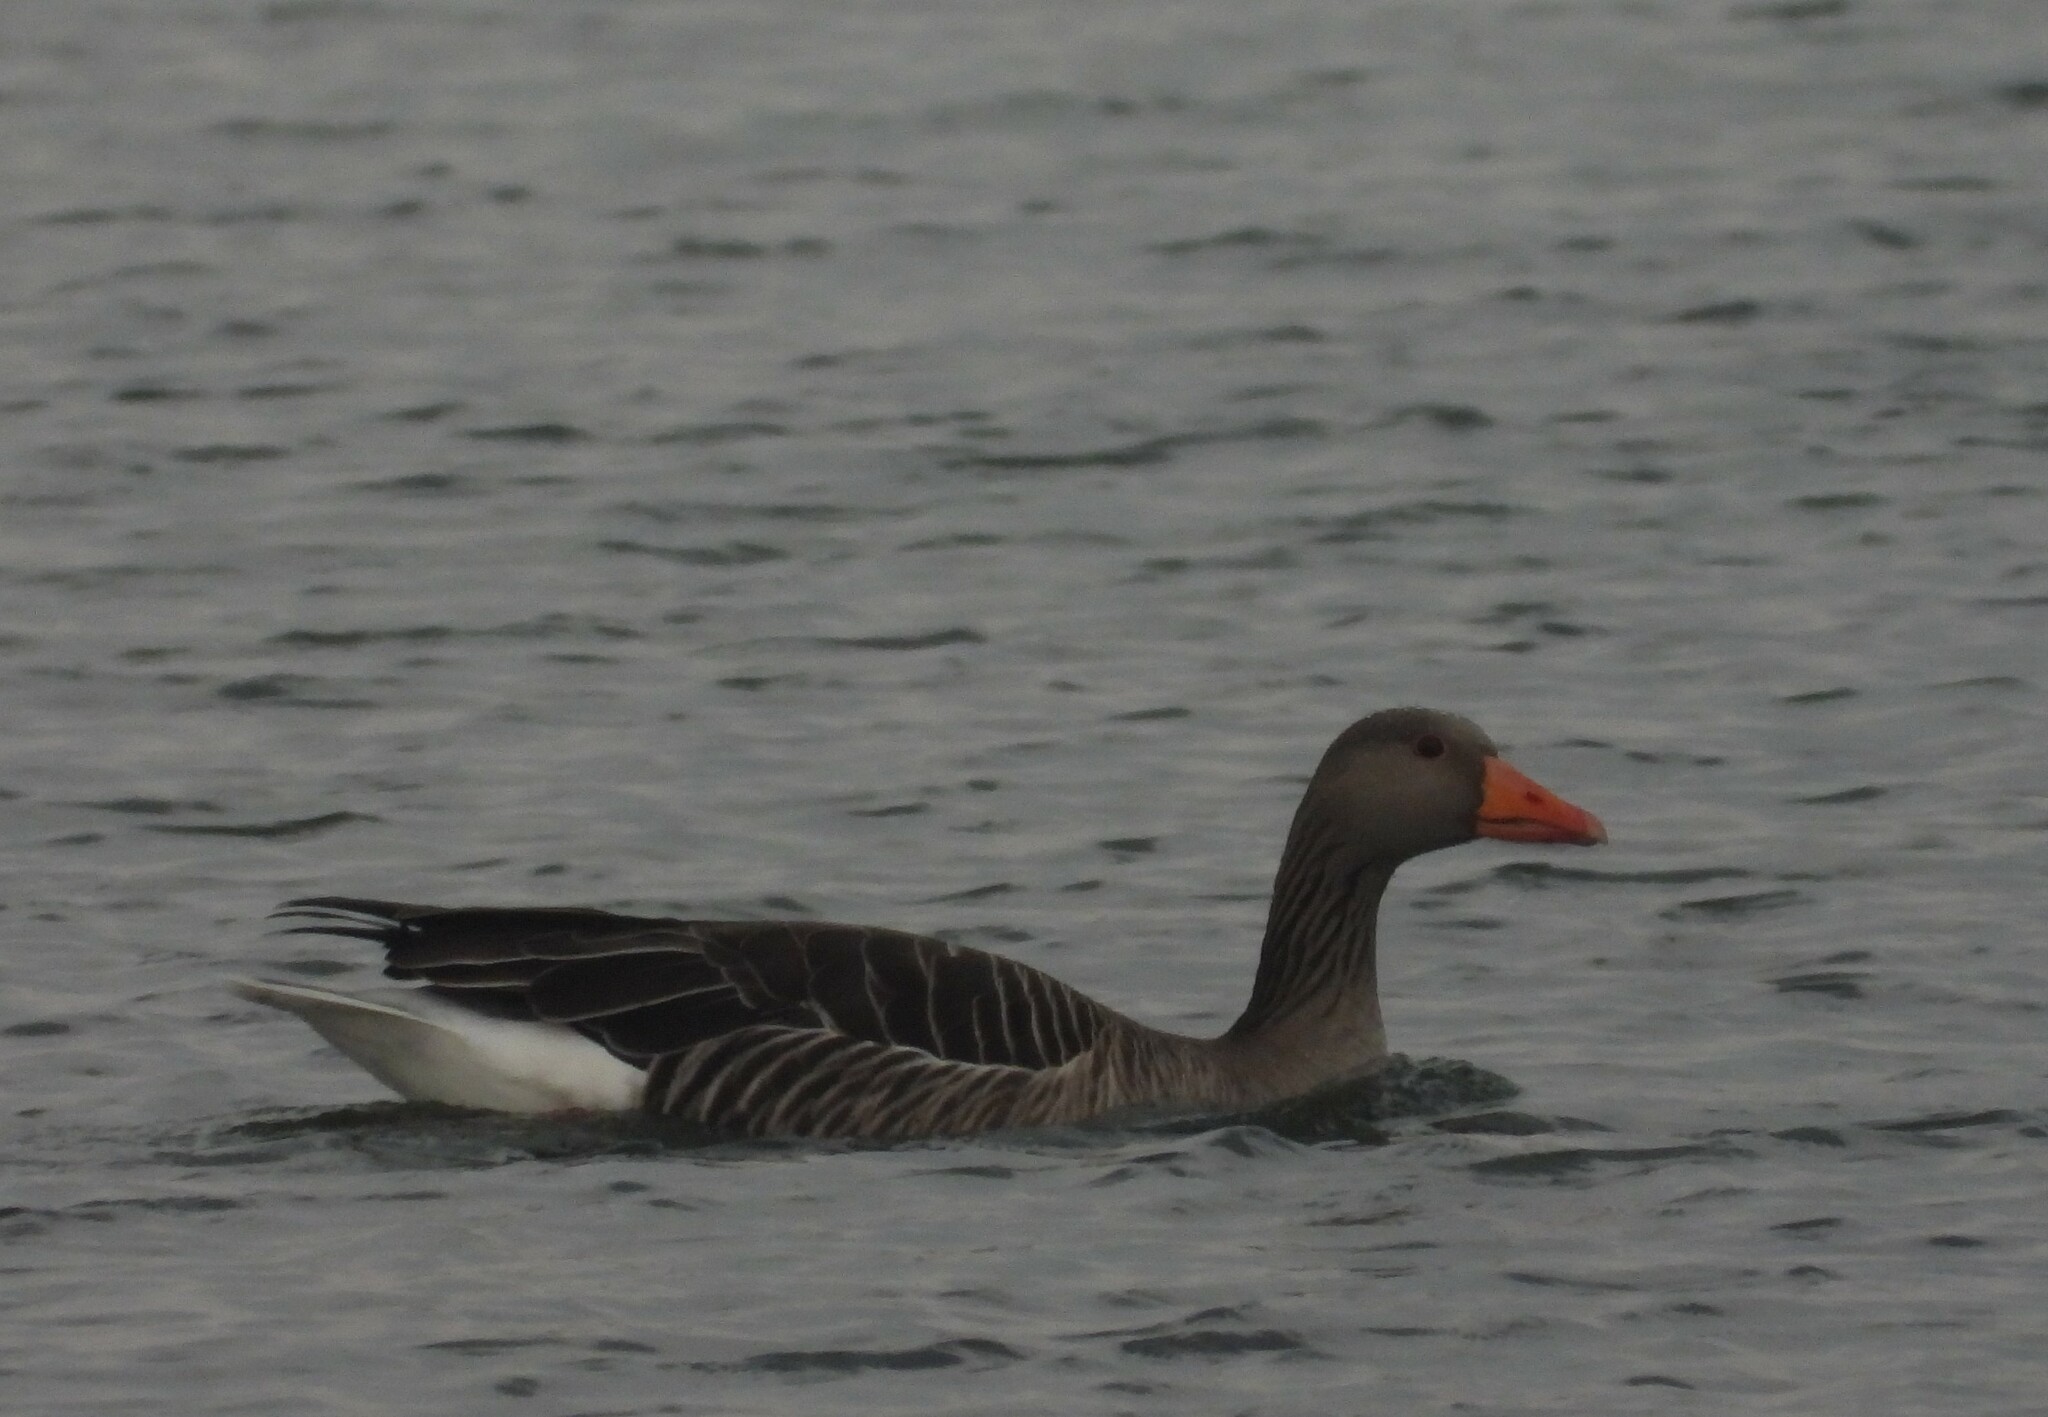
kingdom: Animalia
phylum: Chordata
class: Aves
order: Anseriformes
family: Anatidae
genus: Anser
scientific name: Anser anser
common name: Greylag goose
